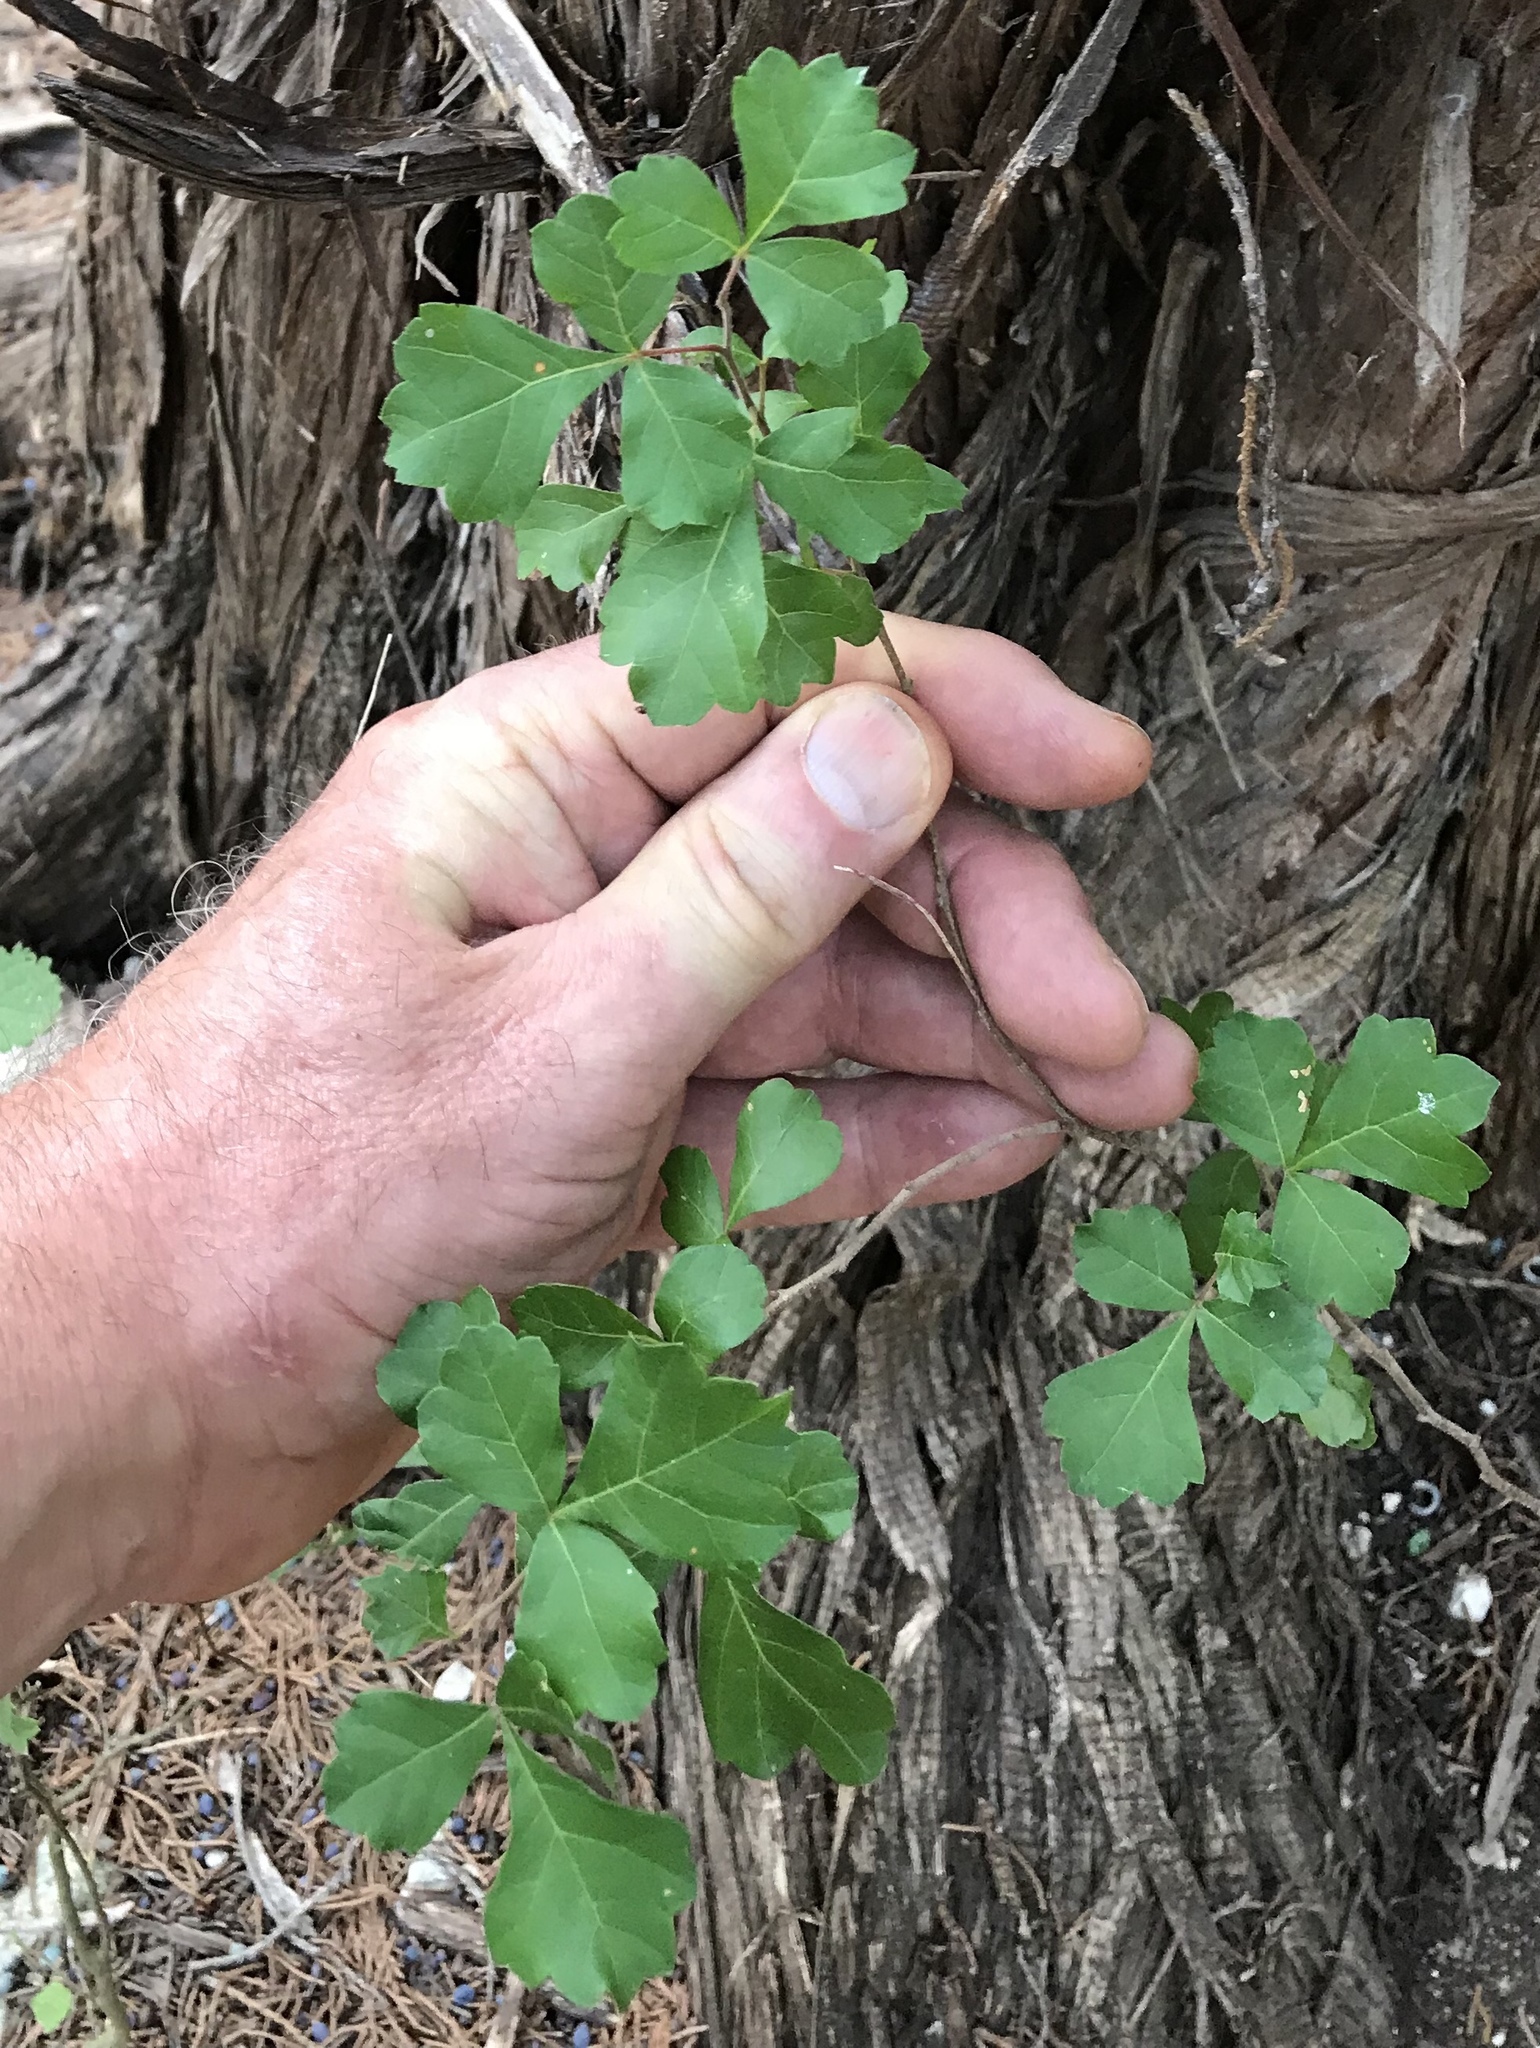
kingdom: Plantae
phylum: Tracheophyta
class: Magnoliopsida
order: Sapindales
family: Anacardiaceae
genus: Rhus
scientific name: Rhus aromatica
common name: Aromatic sumac
